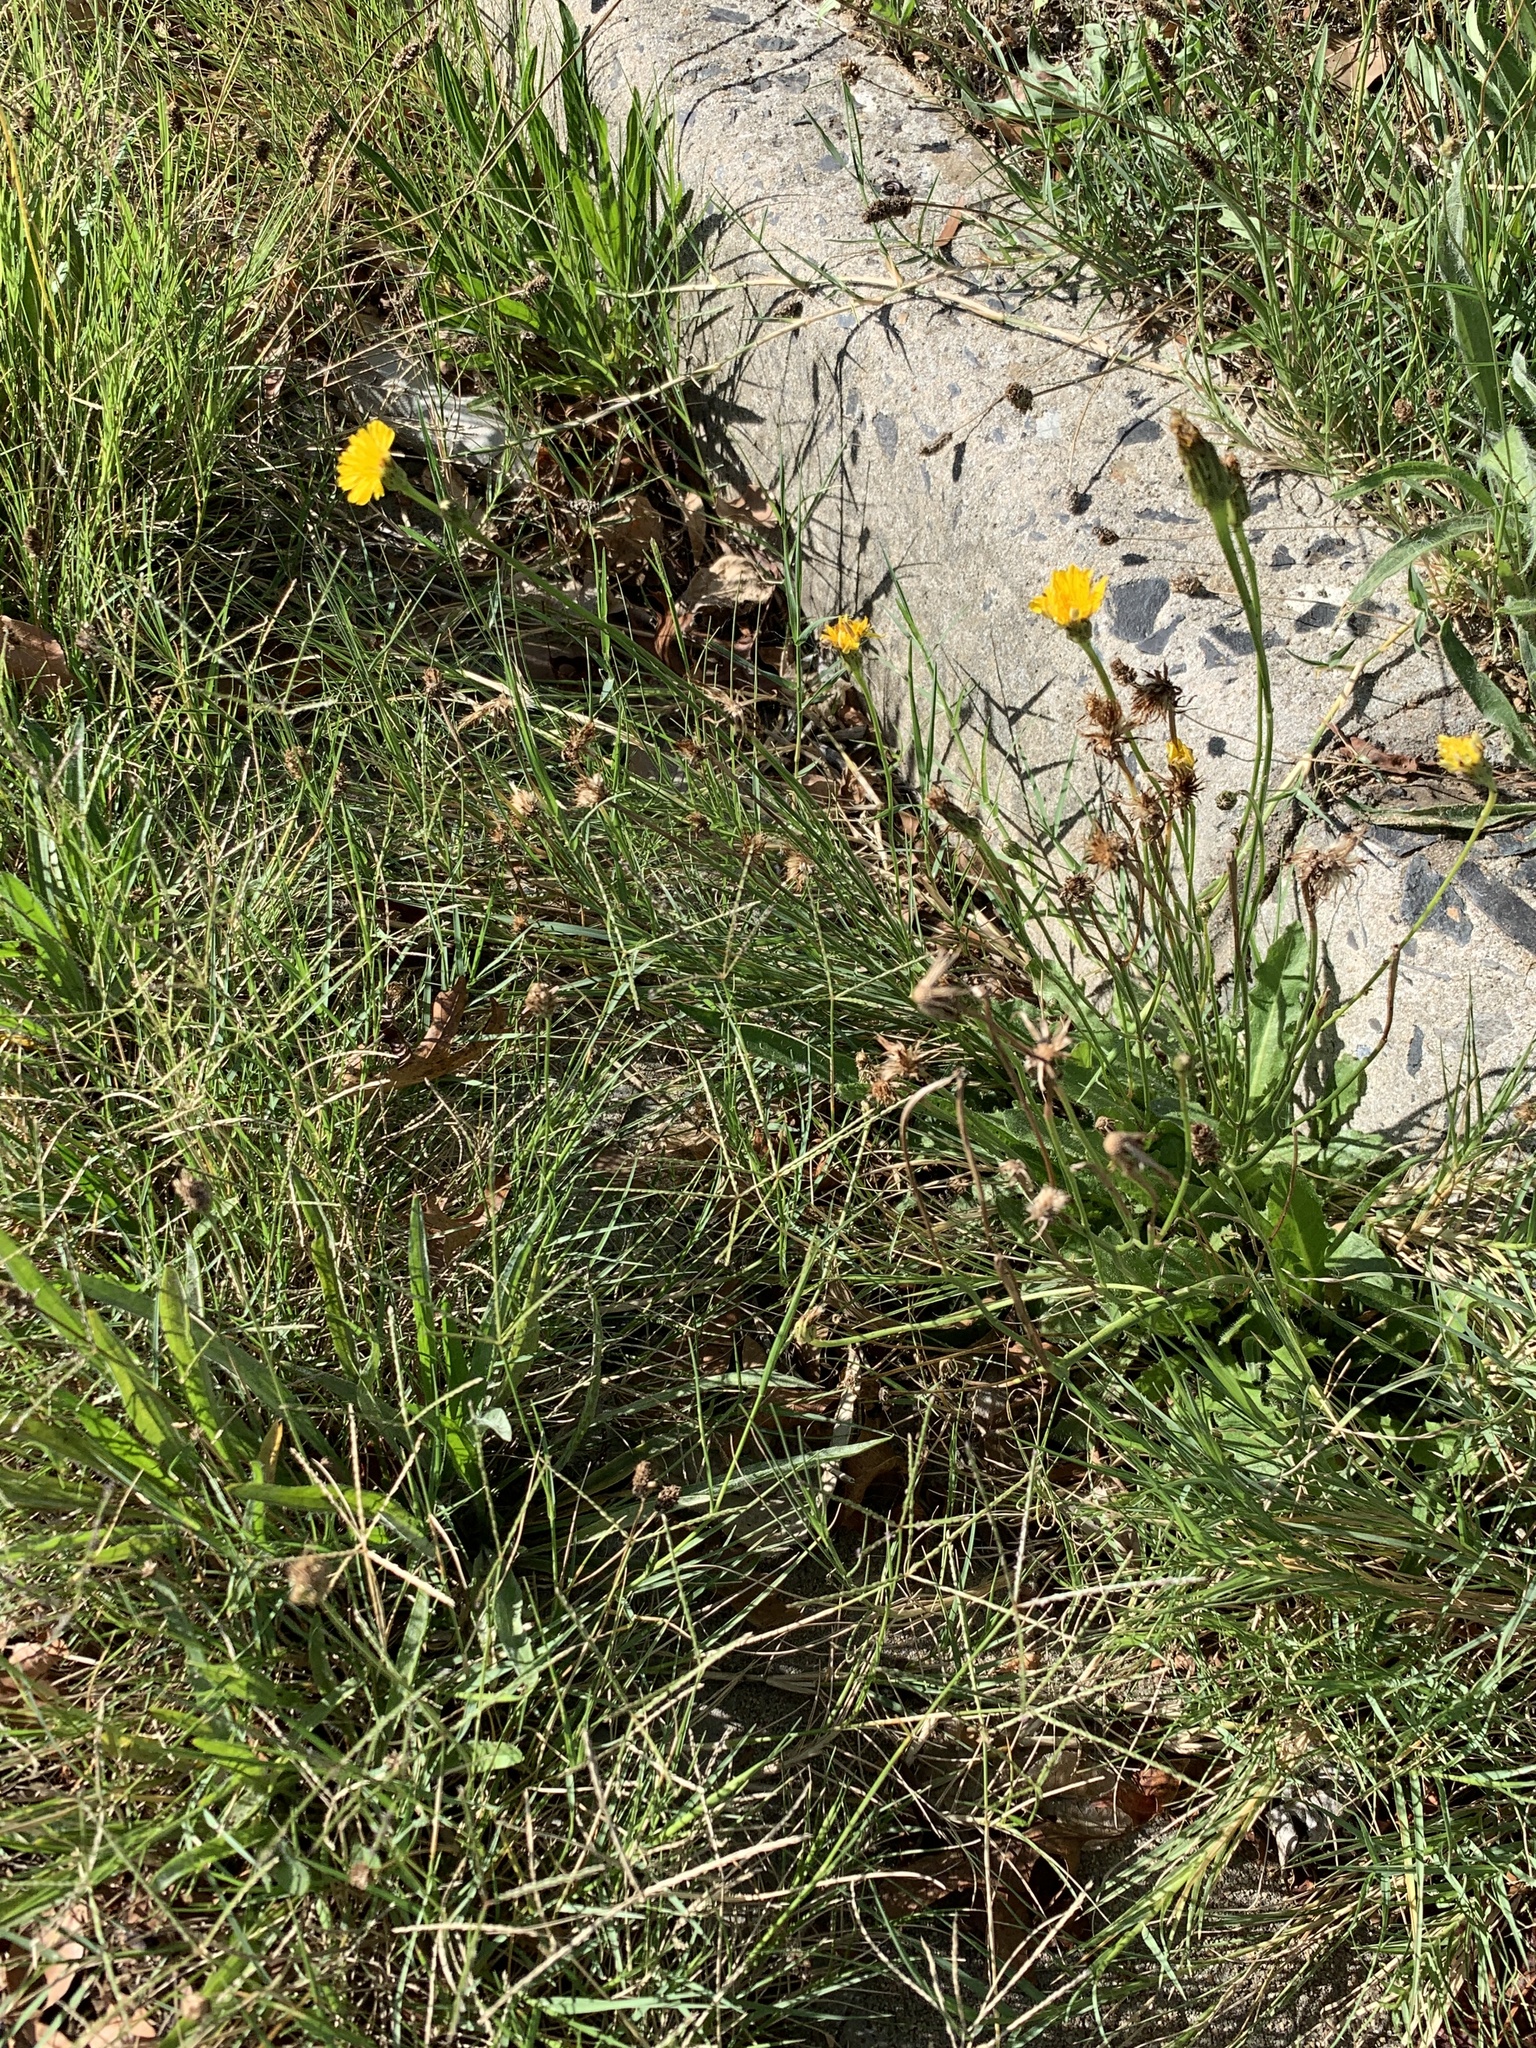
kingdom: Plantae
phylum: Tracheophyta
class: Magnoliopsida
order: Asterales
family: Asteraceae
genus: Hypochaeris
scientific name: Hypochaeris radicata
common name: Flatweed
